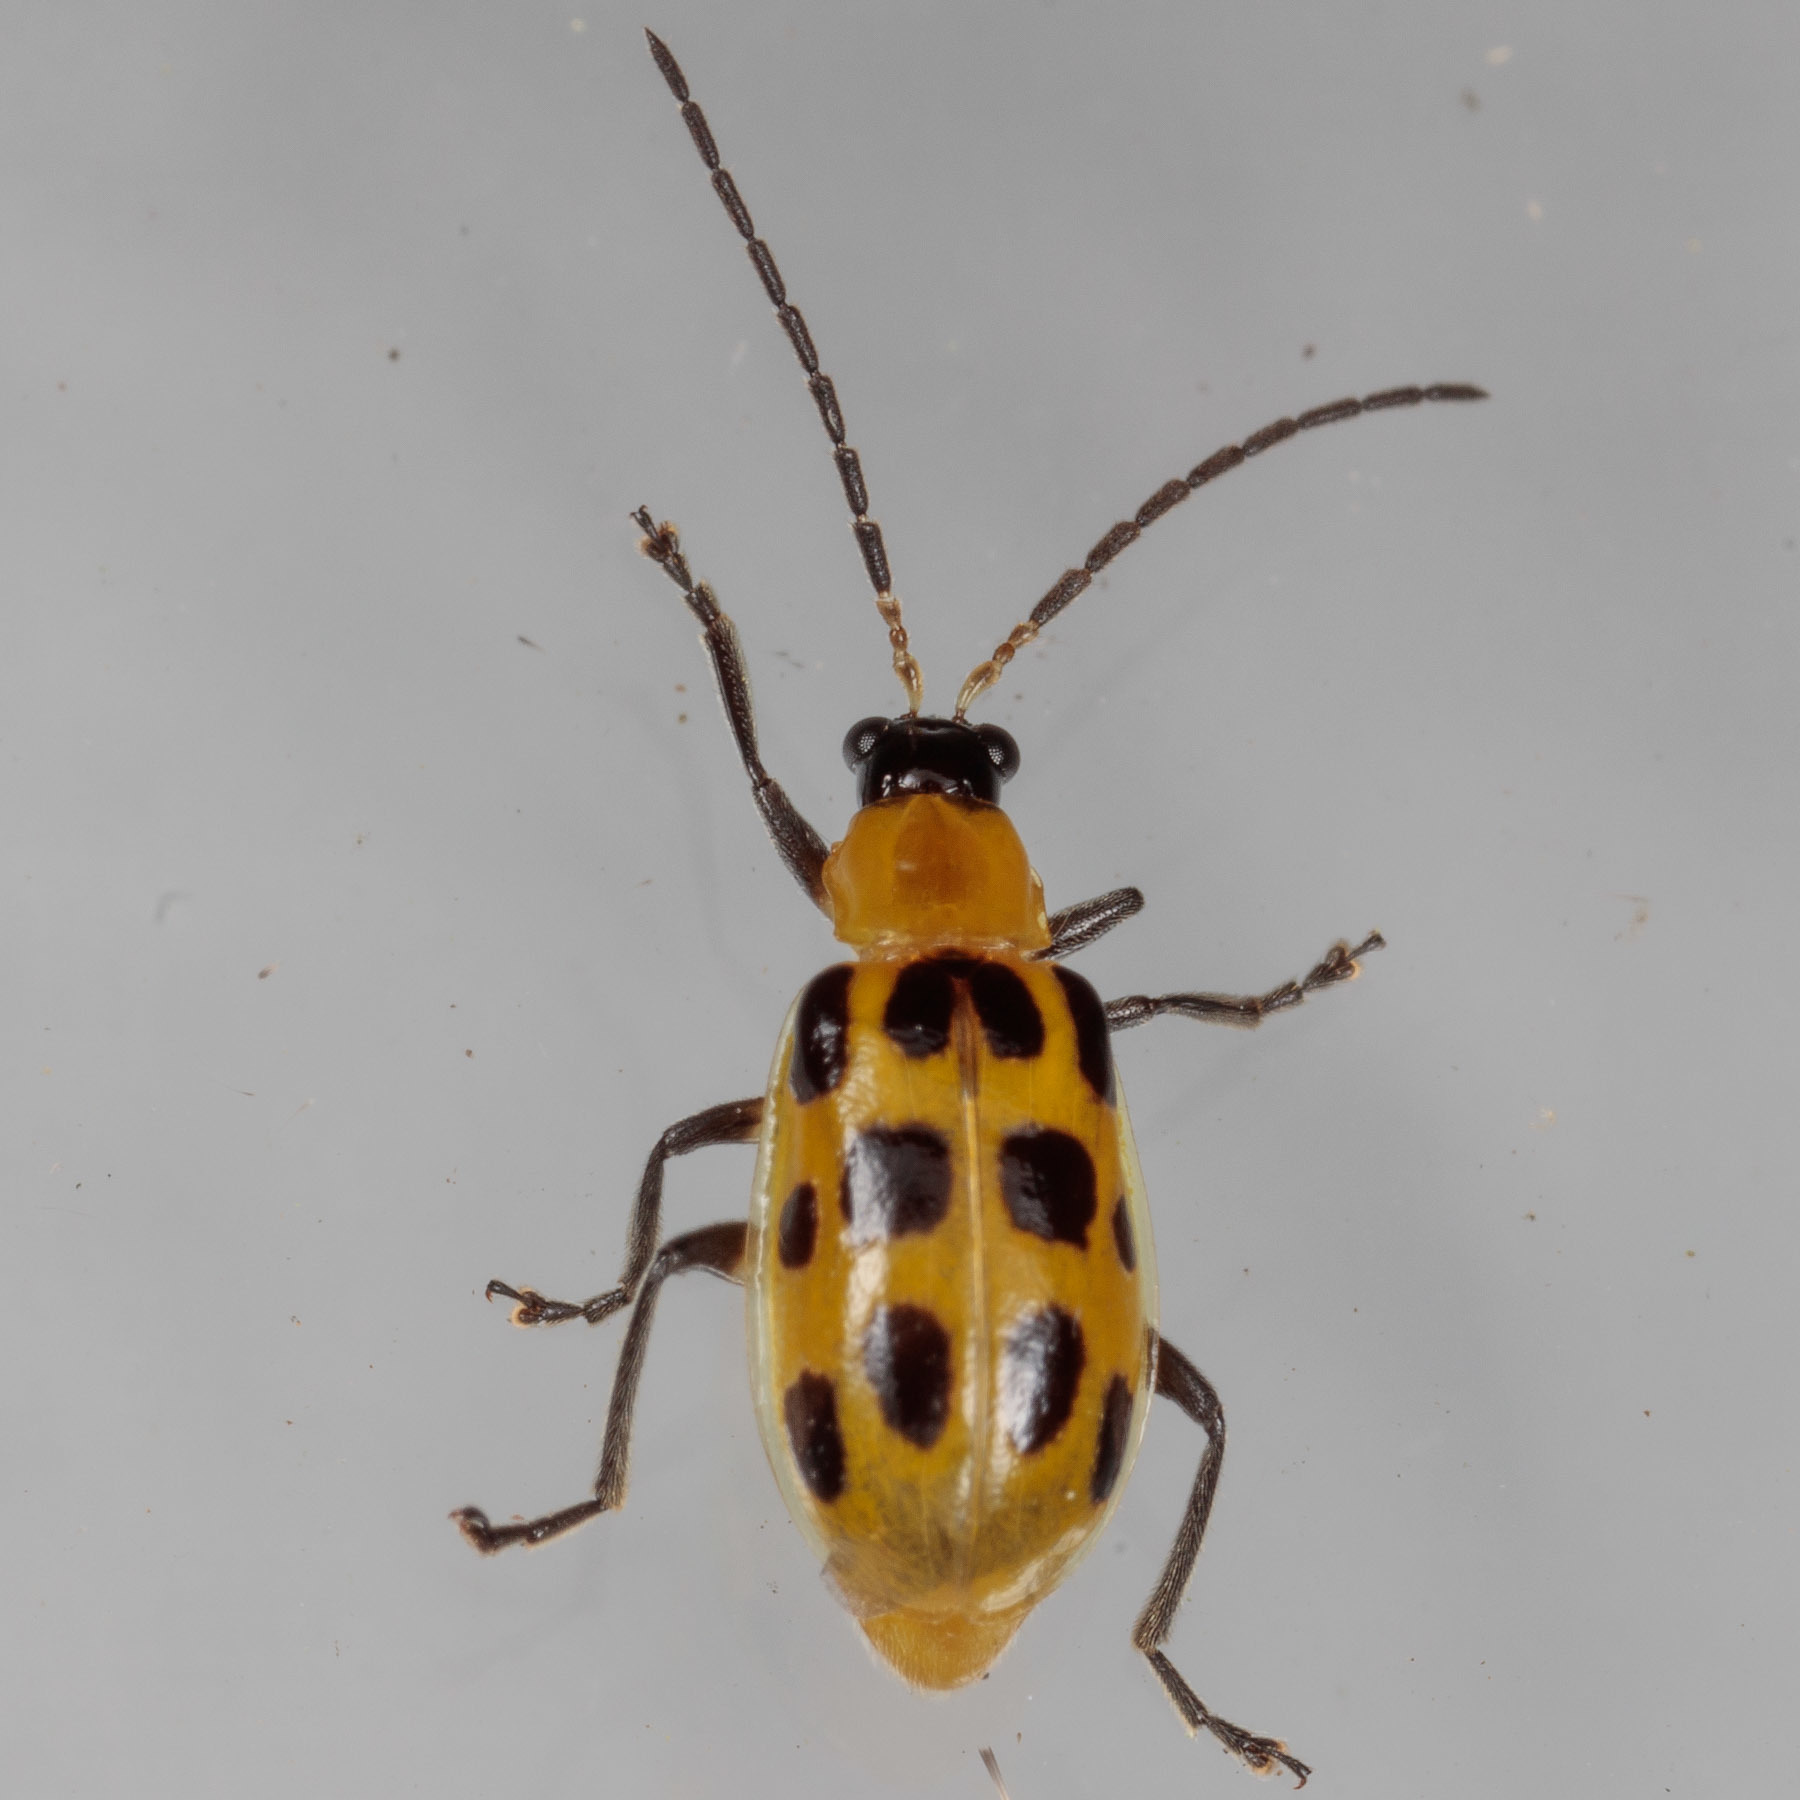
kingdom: Animalia
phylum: Arthropoda
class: Insecta
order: Coleoptera
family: Chrysomelidae
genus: Diabrotica
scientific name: Diabrotica undecimpunctata
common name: Spotted cucumber beetle
